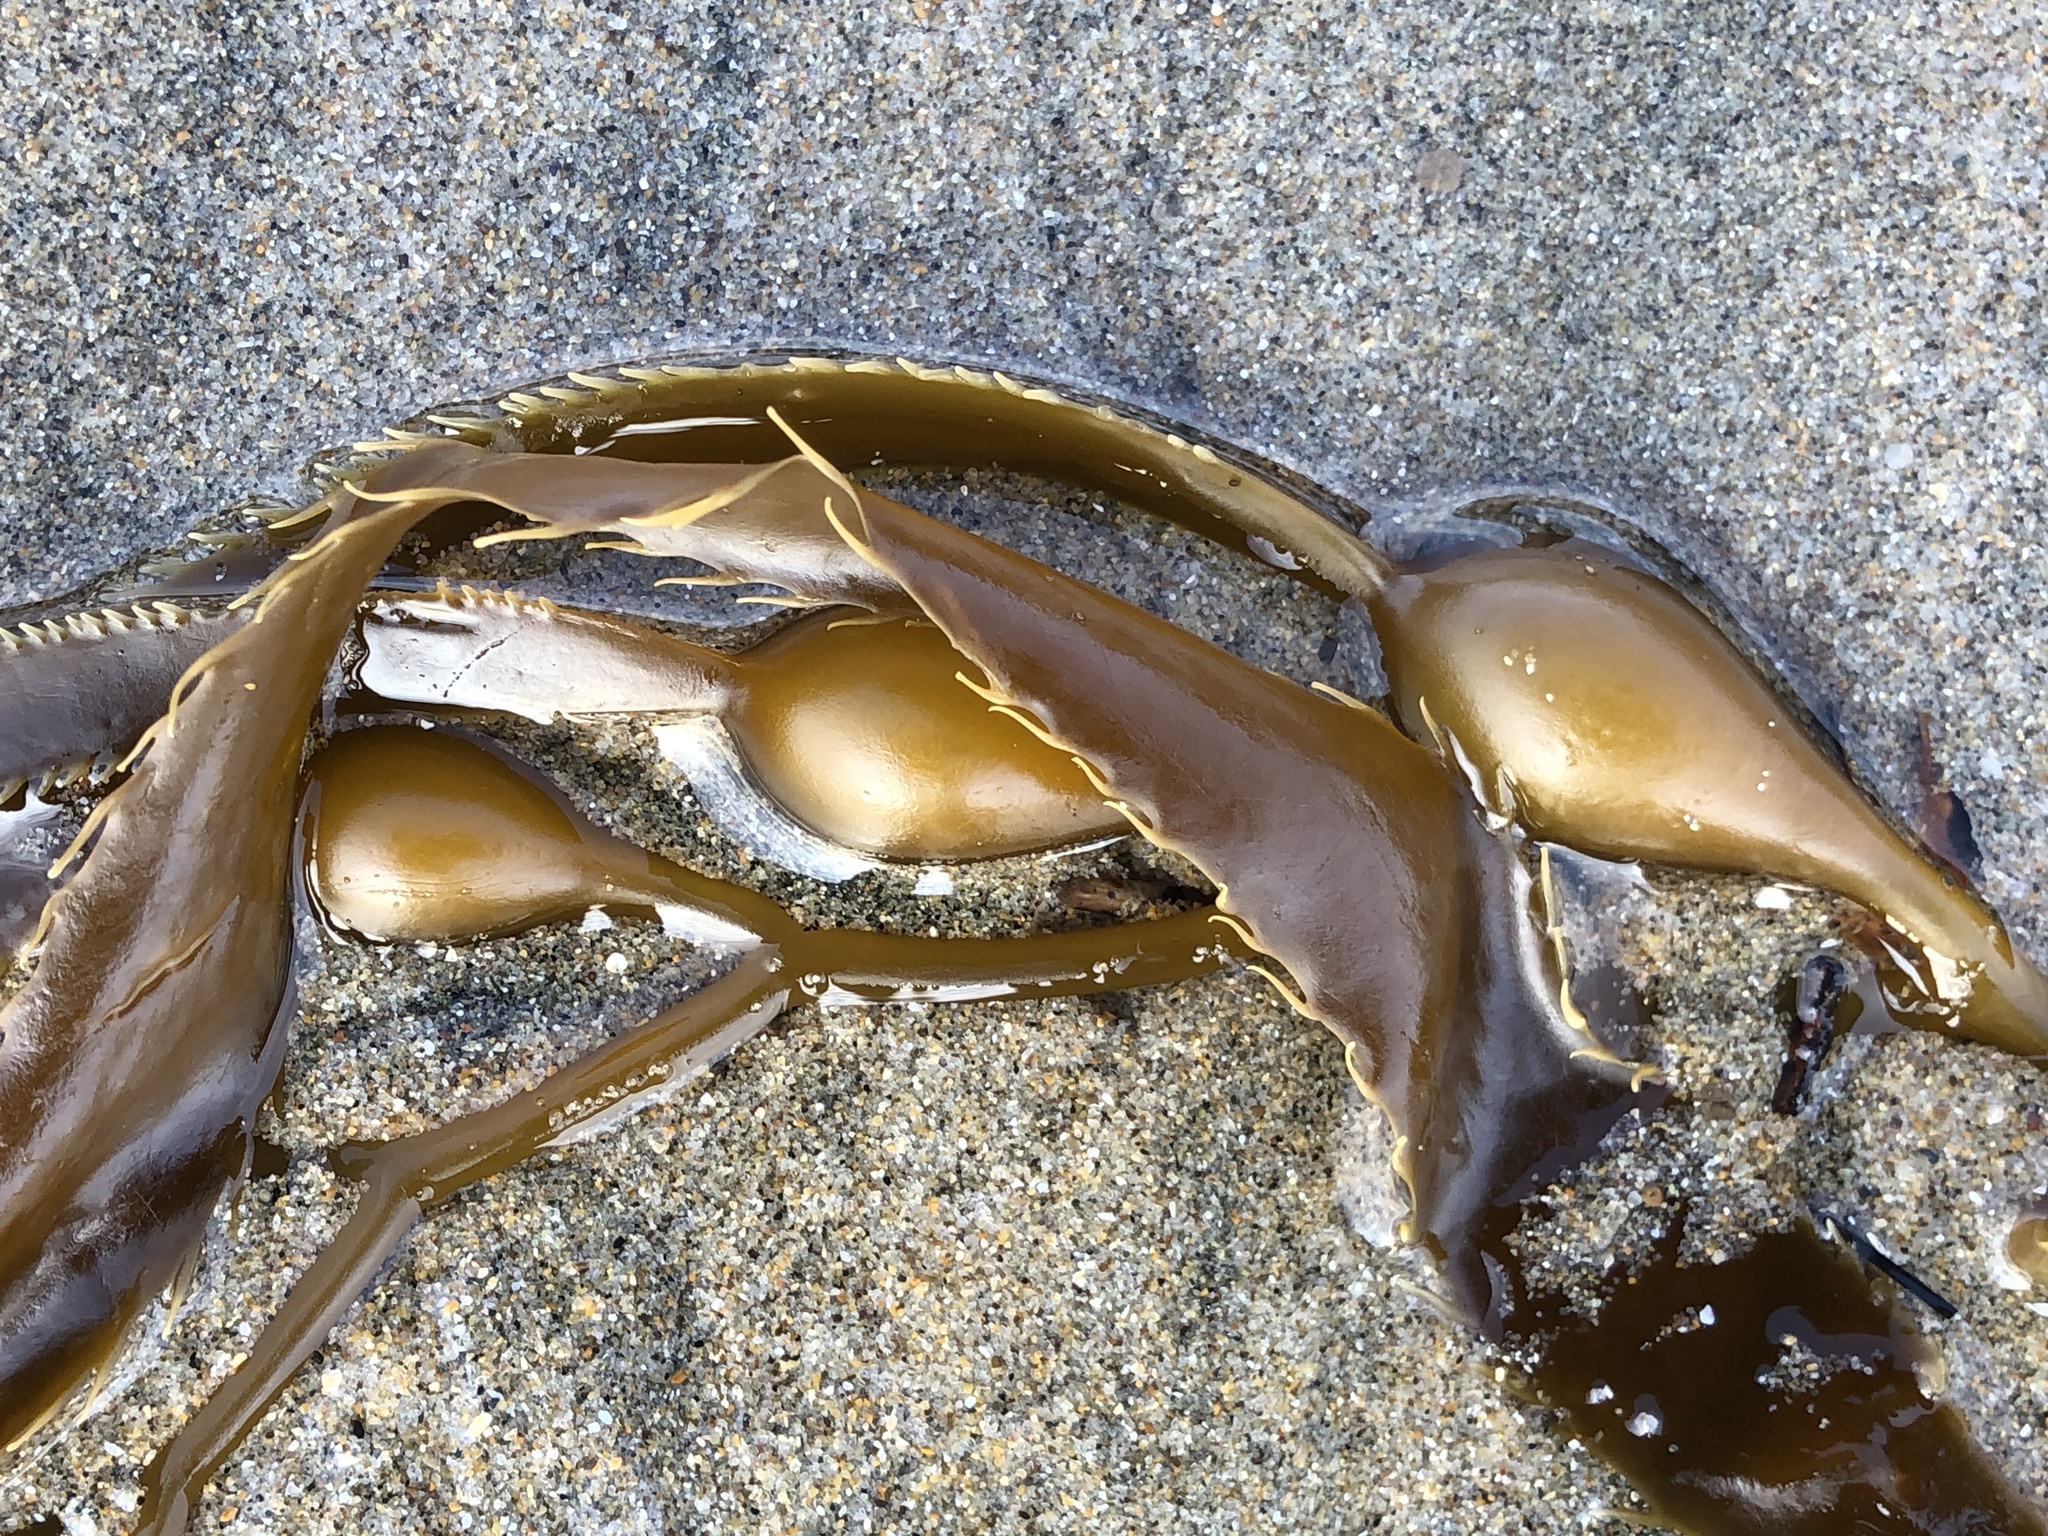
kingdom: Chromista
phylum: Ochrophyta
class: Phaeophyceae
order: Laminariales
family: Laminariaceae
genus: Macrocystis
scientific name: Macrocystis pyrifera
